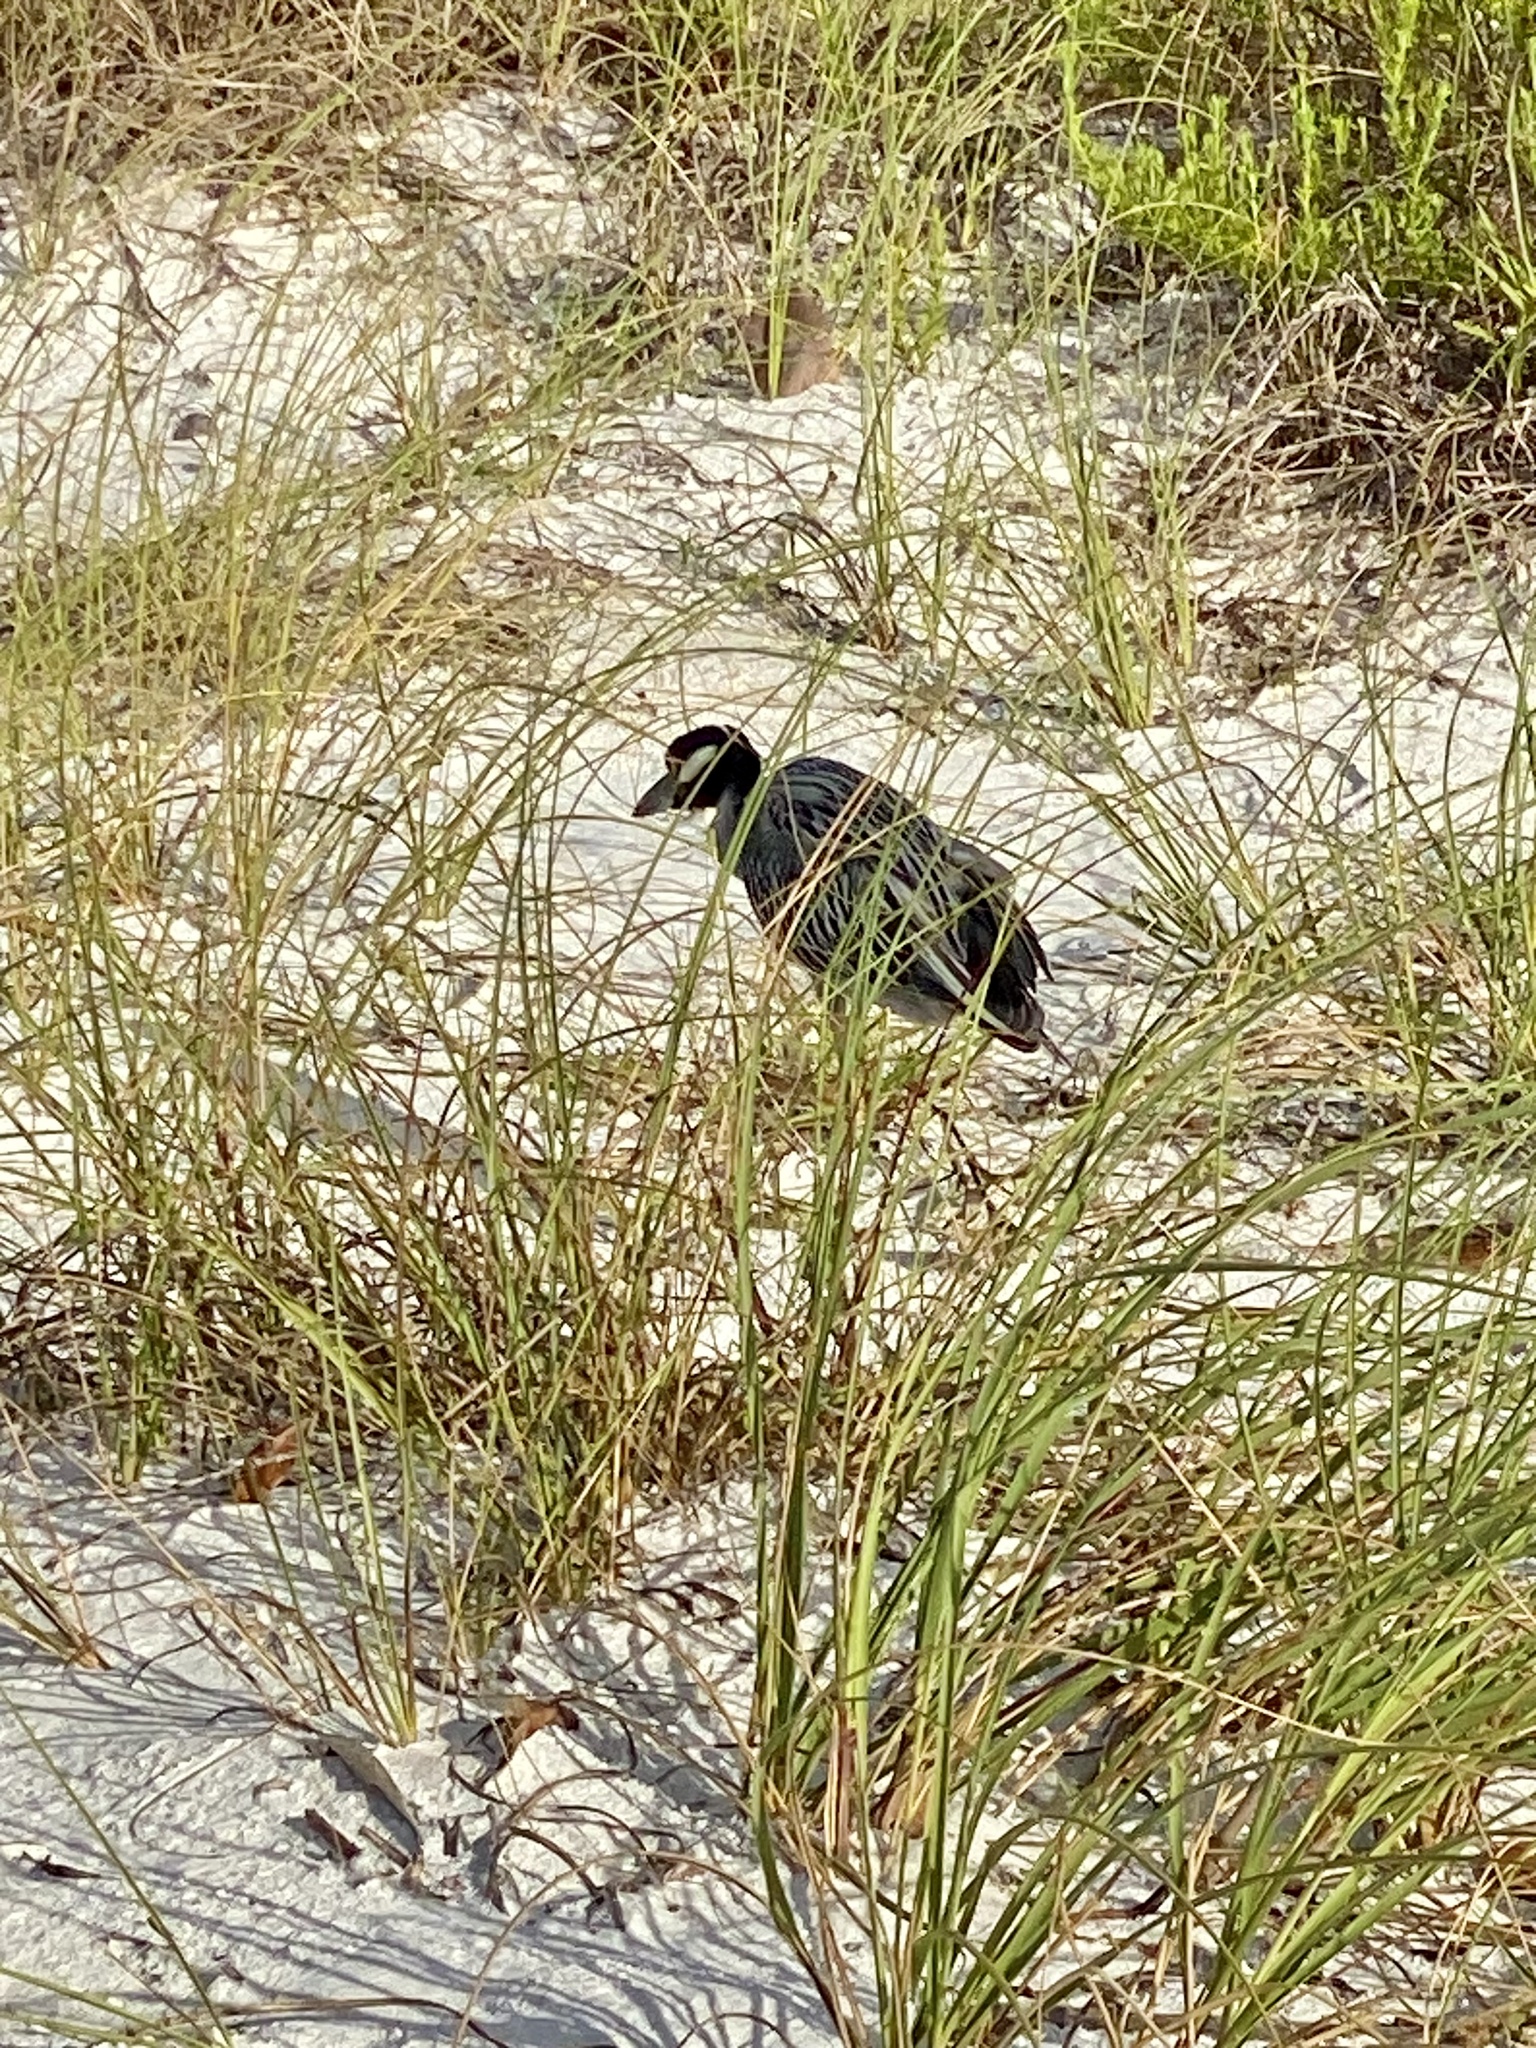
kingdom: Animalia
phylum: Chordata
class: Aves
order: Pelecaniformes
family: Ardeidae
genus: Nyctanassa
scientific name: Nyctanassa violacea
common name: Yellow-crowned night heron
